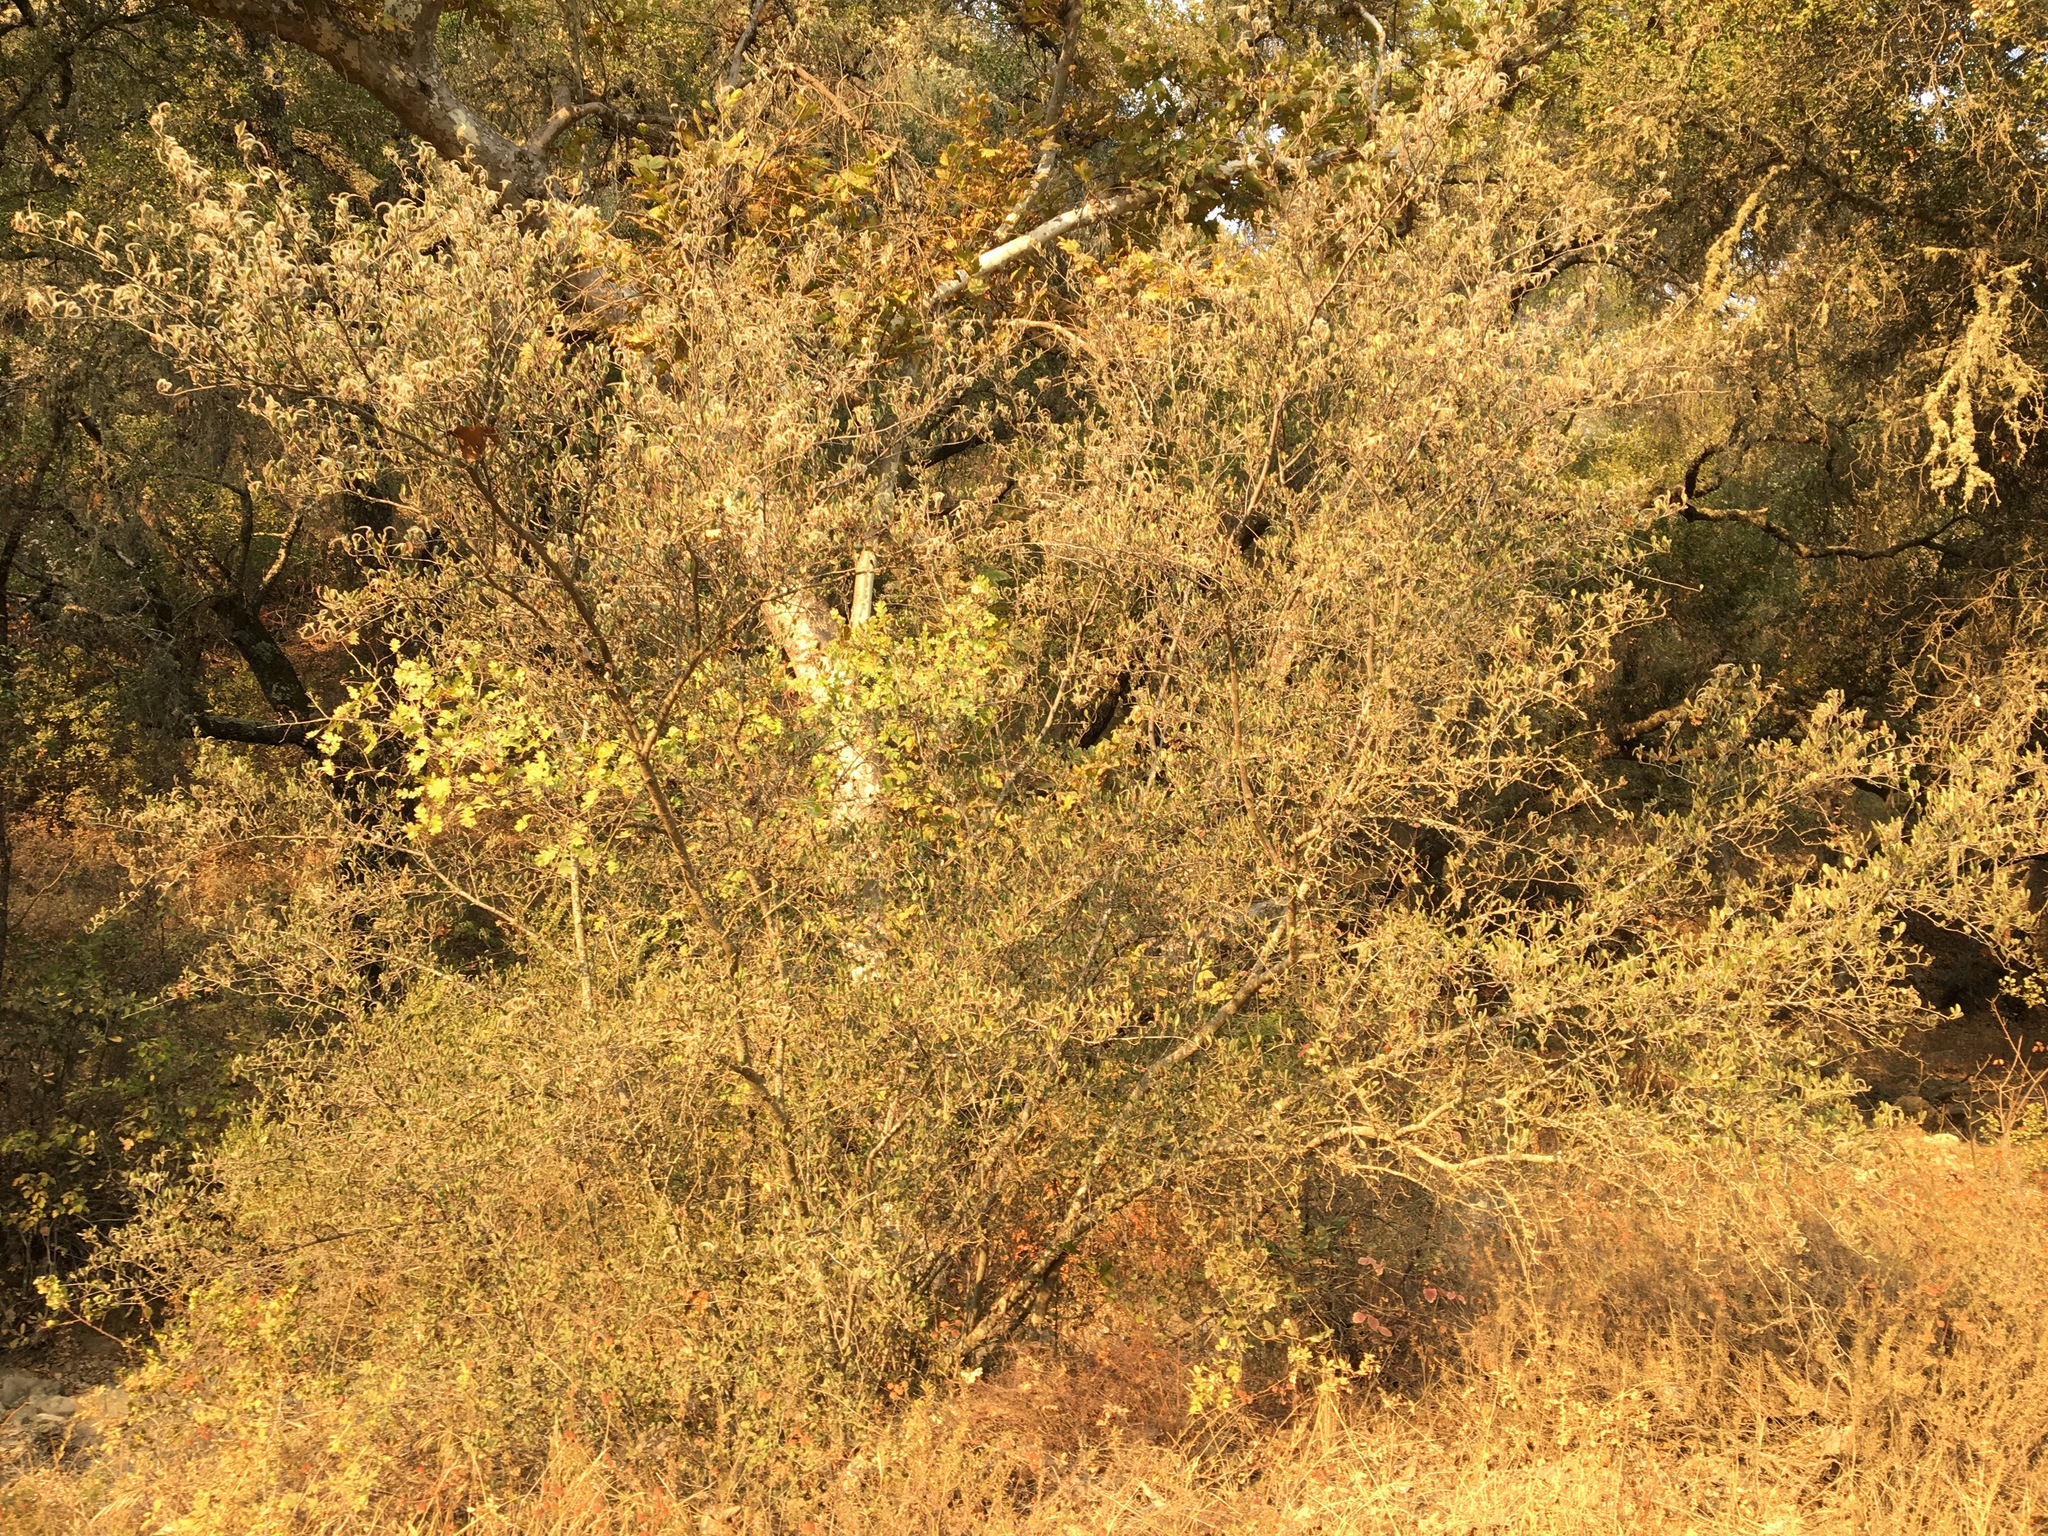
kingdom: Plantae
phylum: Tracheophyta
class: Magnoliopsida
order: Rosales
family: Rosaceae
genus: Cercocarpus
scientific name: Cercocarpus betuloides
